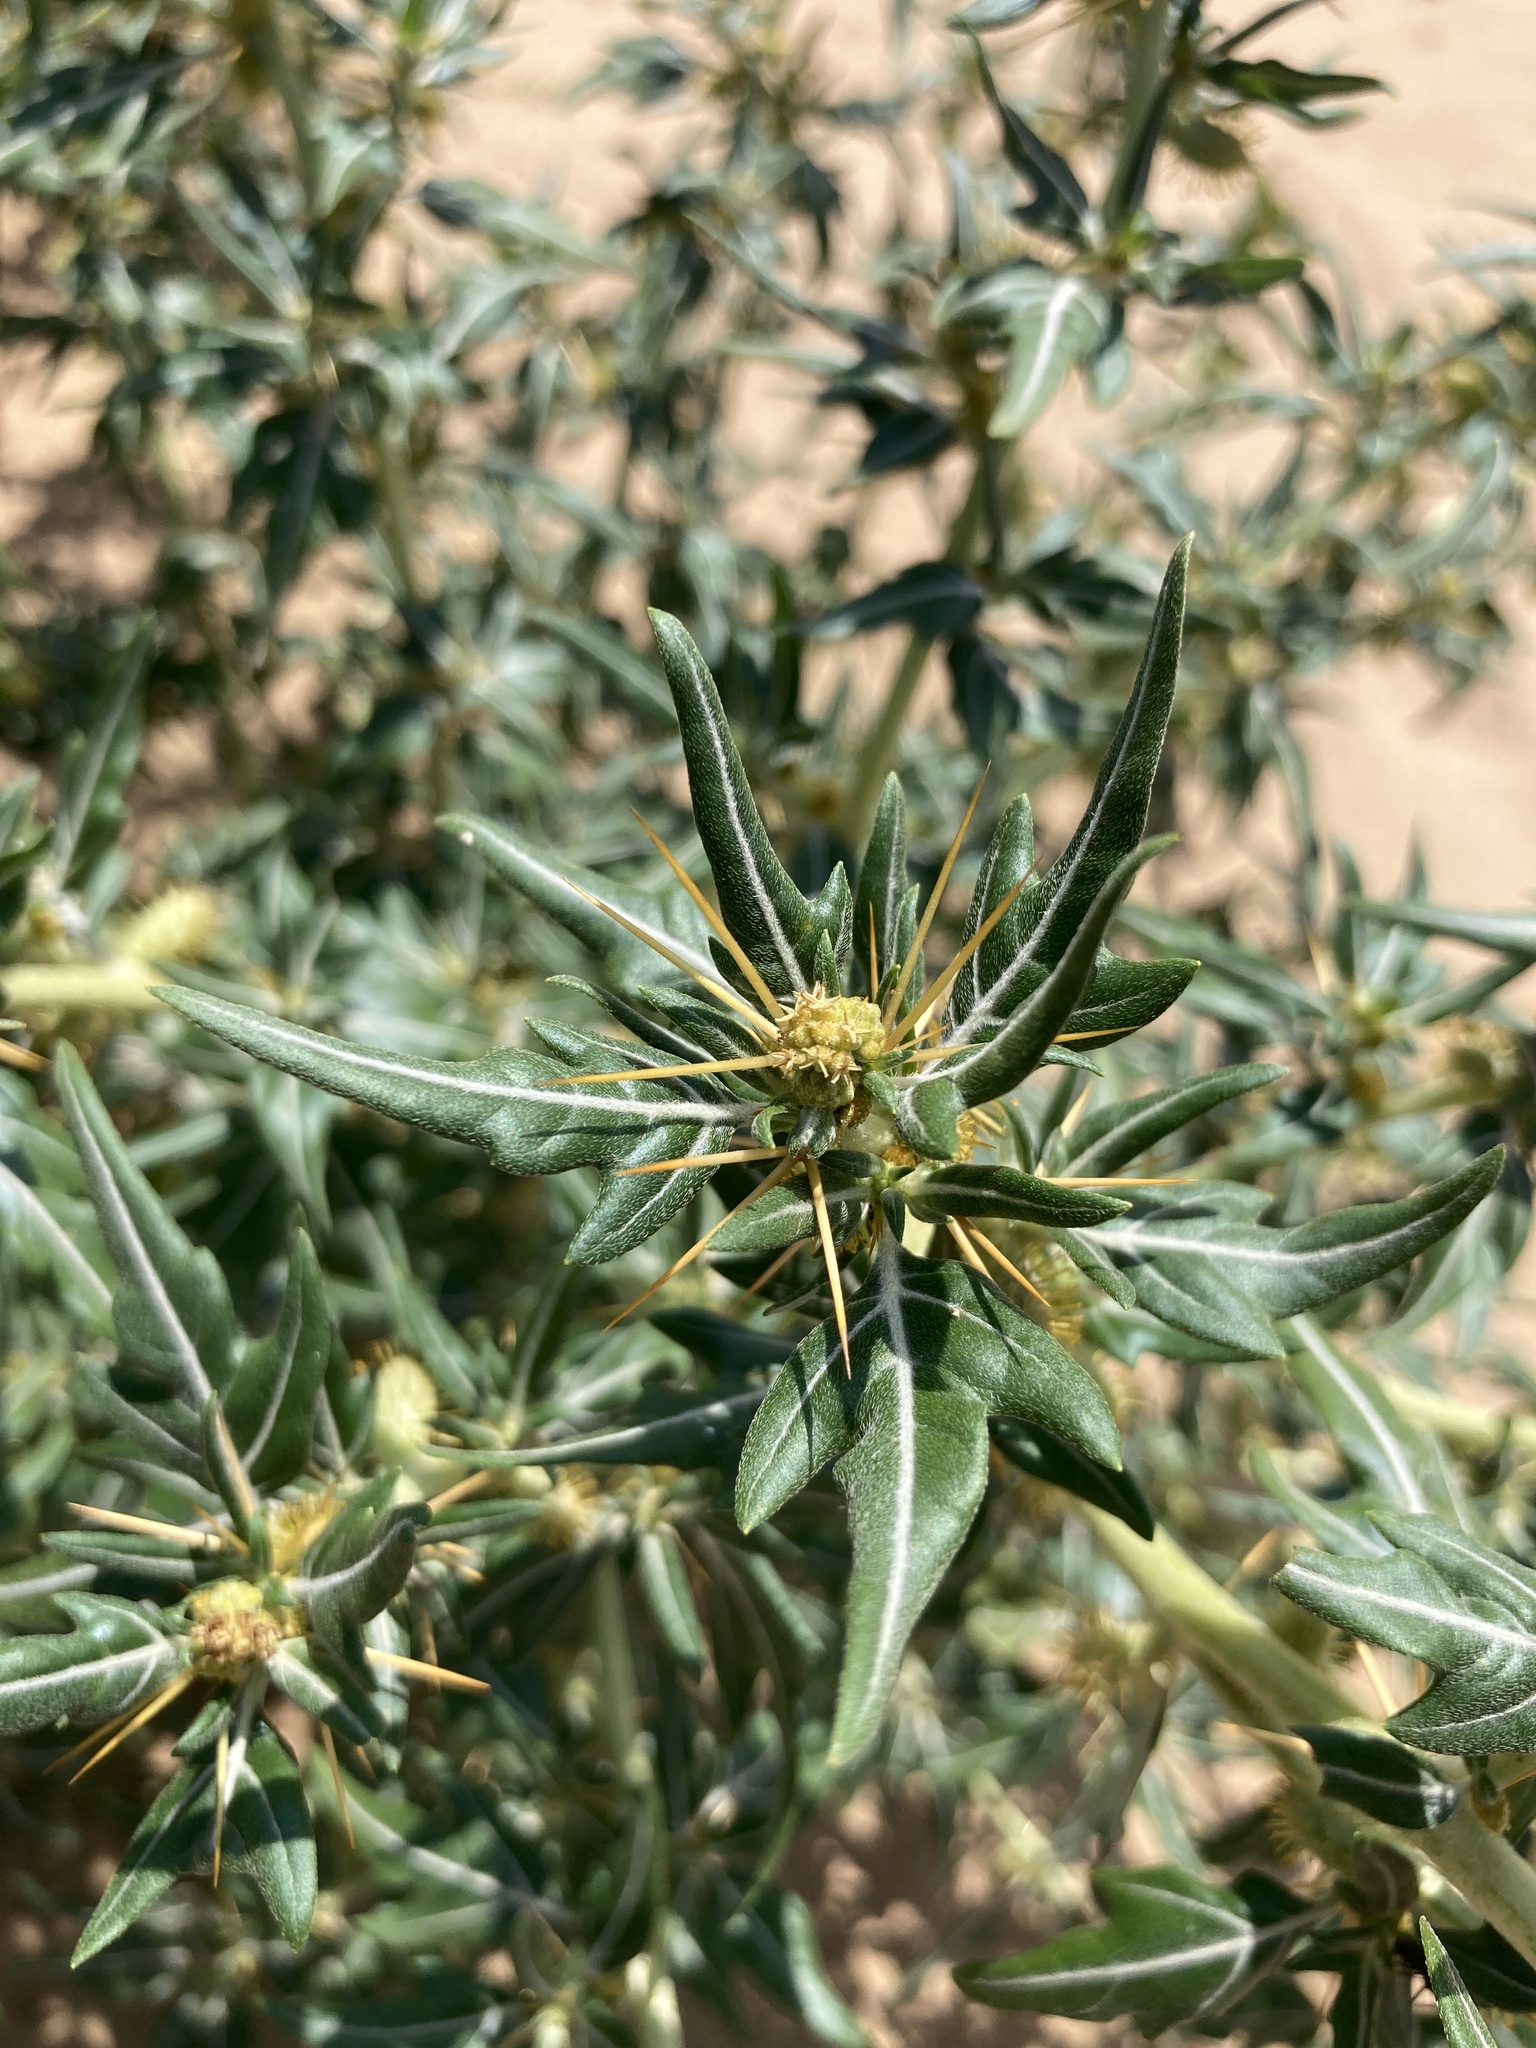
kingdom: Plantae
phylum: Tracheophyta
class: Magnoliopsida
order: Asterales
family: Asteraceae
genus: Xanthium
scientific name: Xanthium spinosum
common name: Spiny cocklebur
